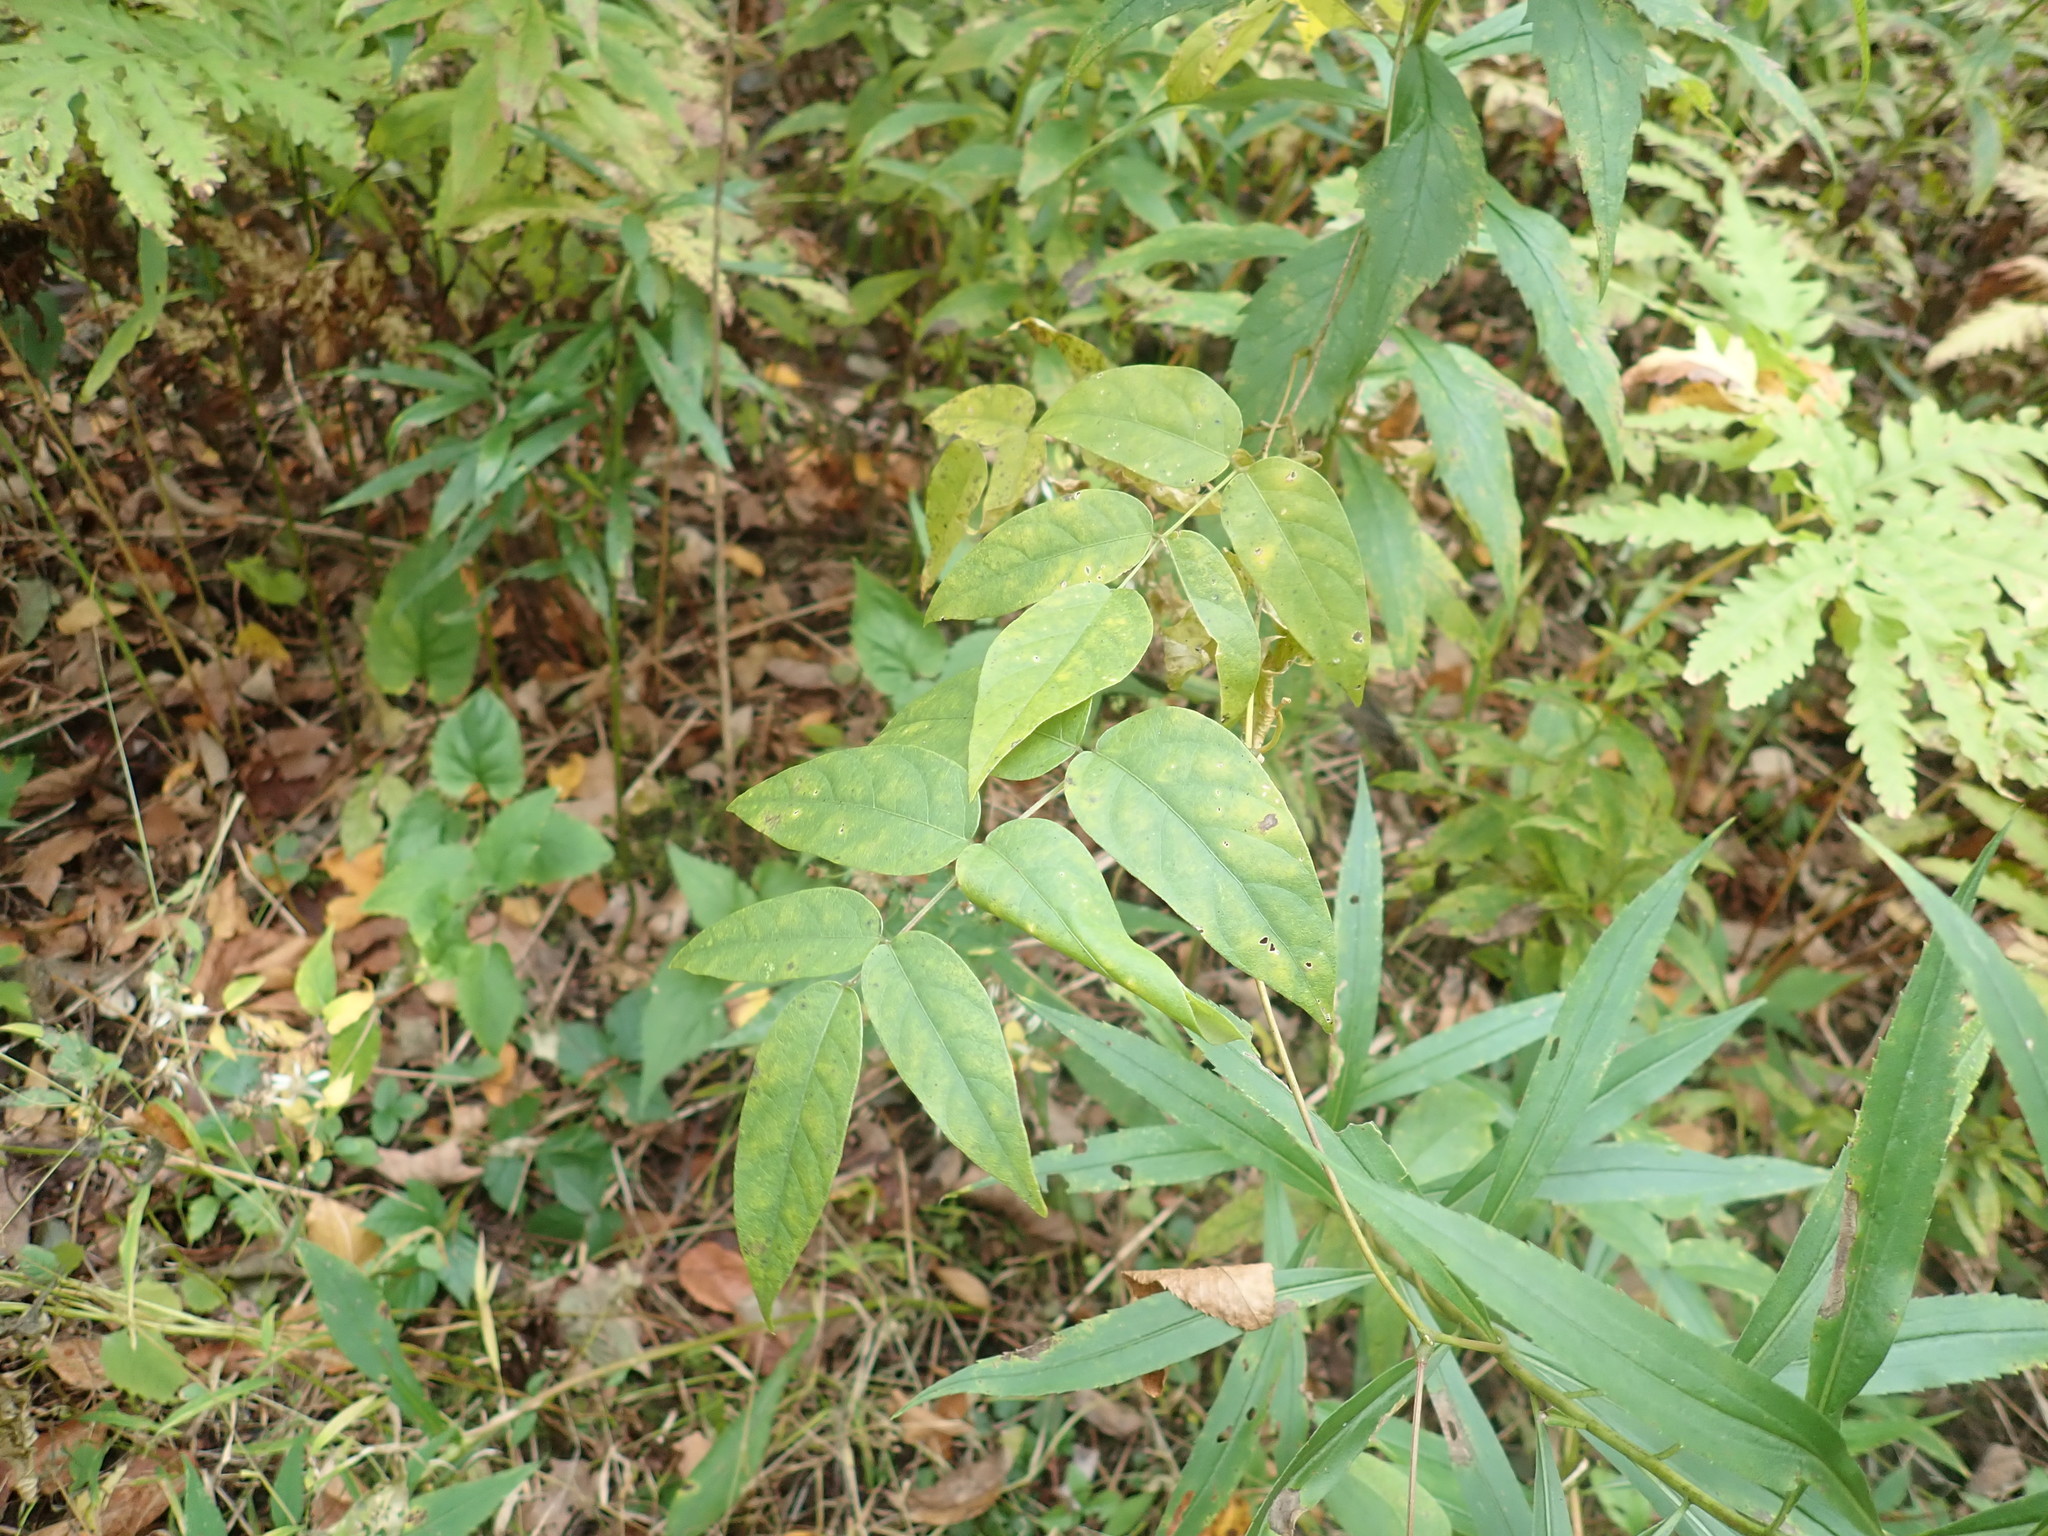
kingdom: Plantae
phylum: Tracheophyta
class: Magnoliopsida
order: Fabales
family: Fabaceae
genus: Apios
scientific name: Apios americana
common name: American potato-bean
